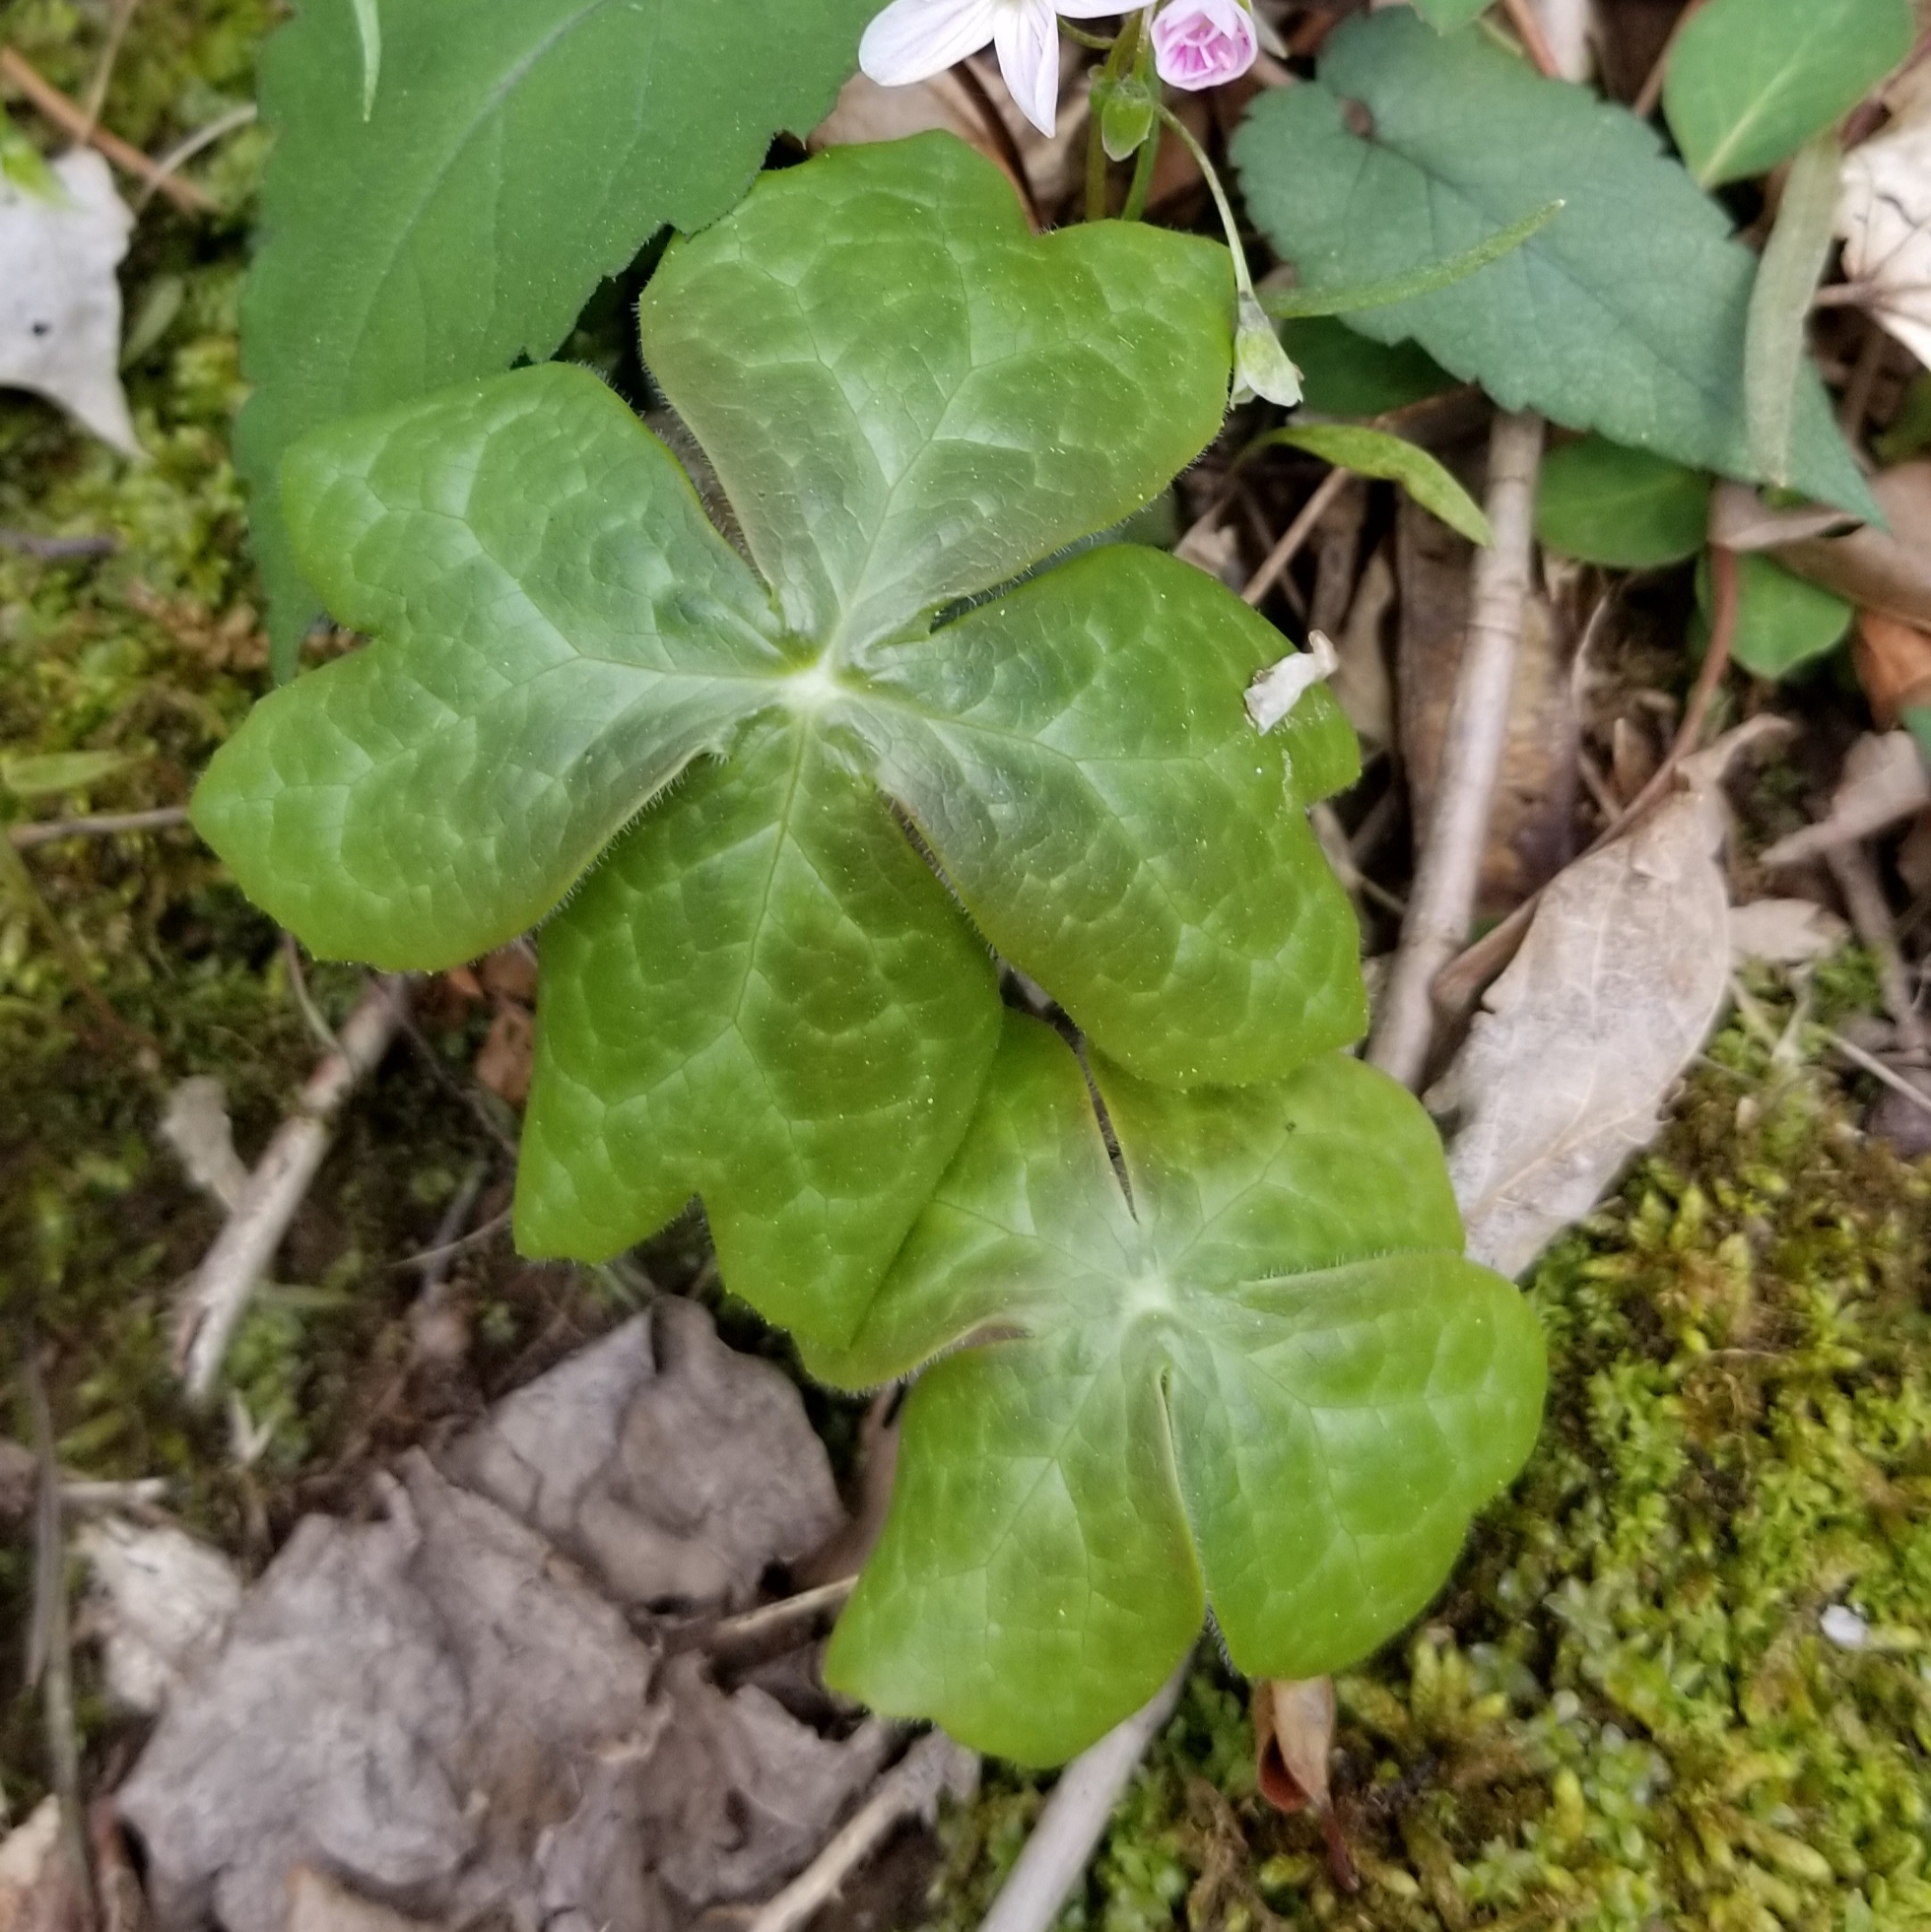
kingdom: Plantae
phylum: Tracheophyta
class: Magnoliopsida
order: Ranunculales
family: Berberidaceae
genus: Podophyllum
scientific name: Podophyllum peltatum
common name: Wild mandrake
